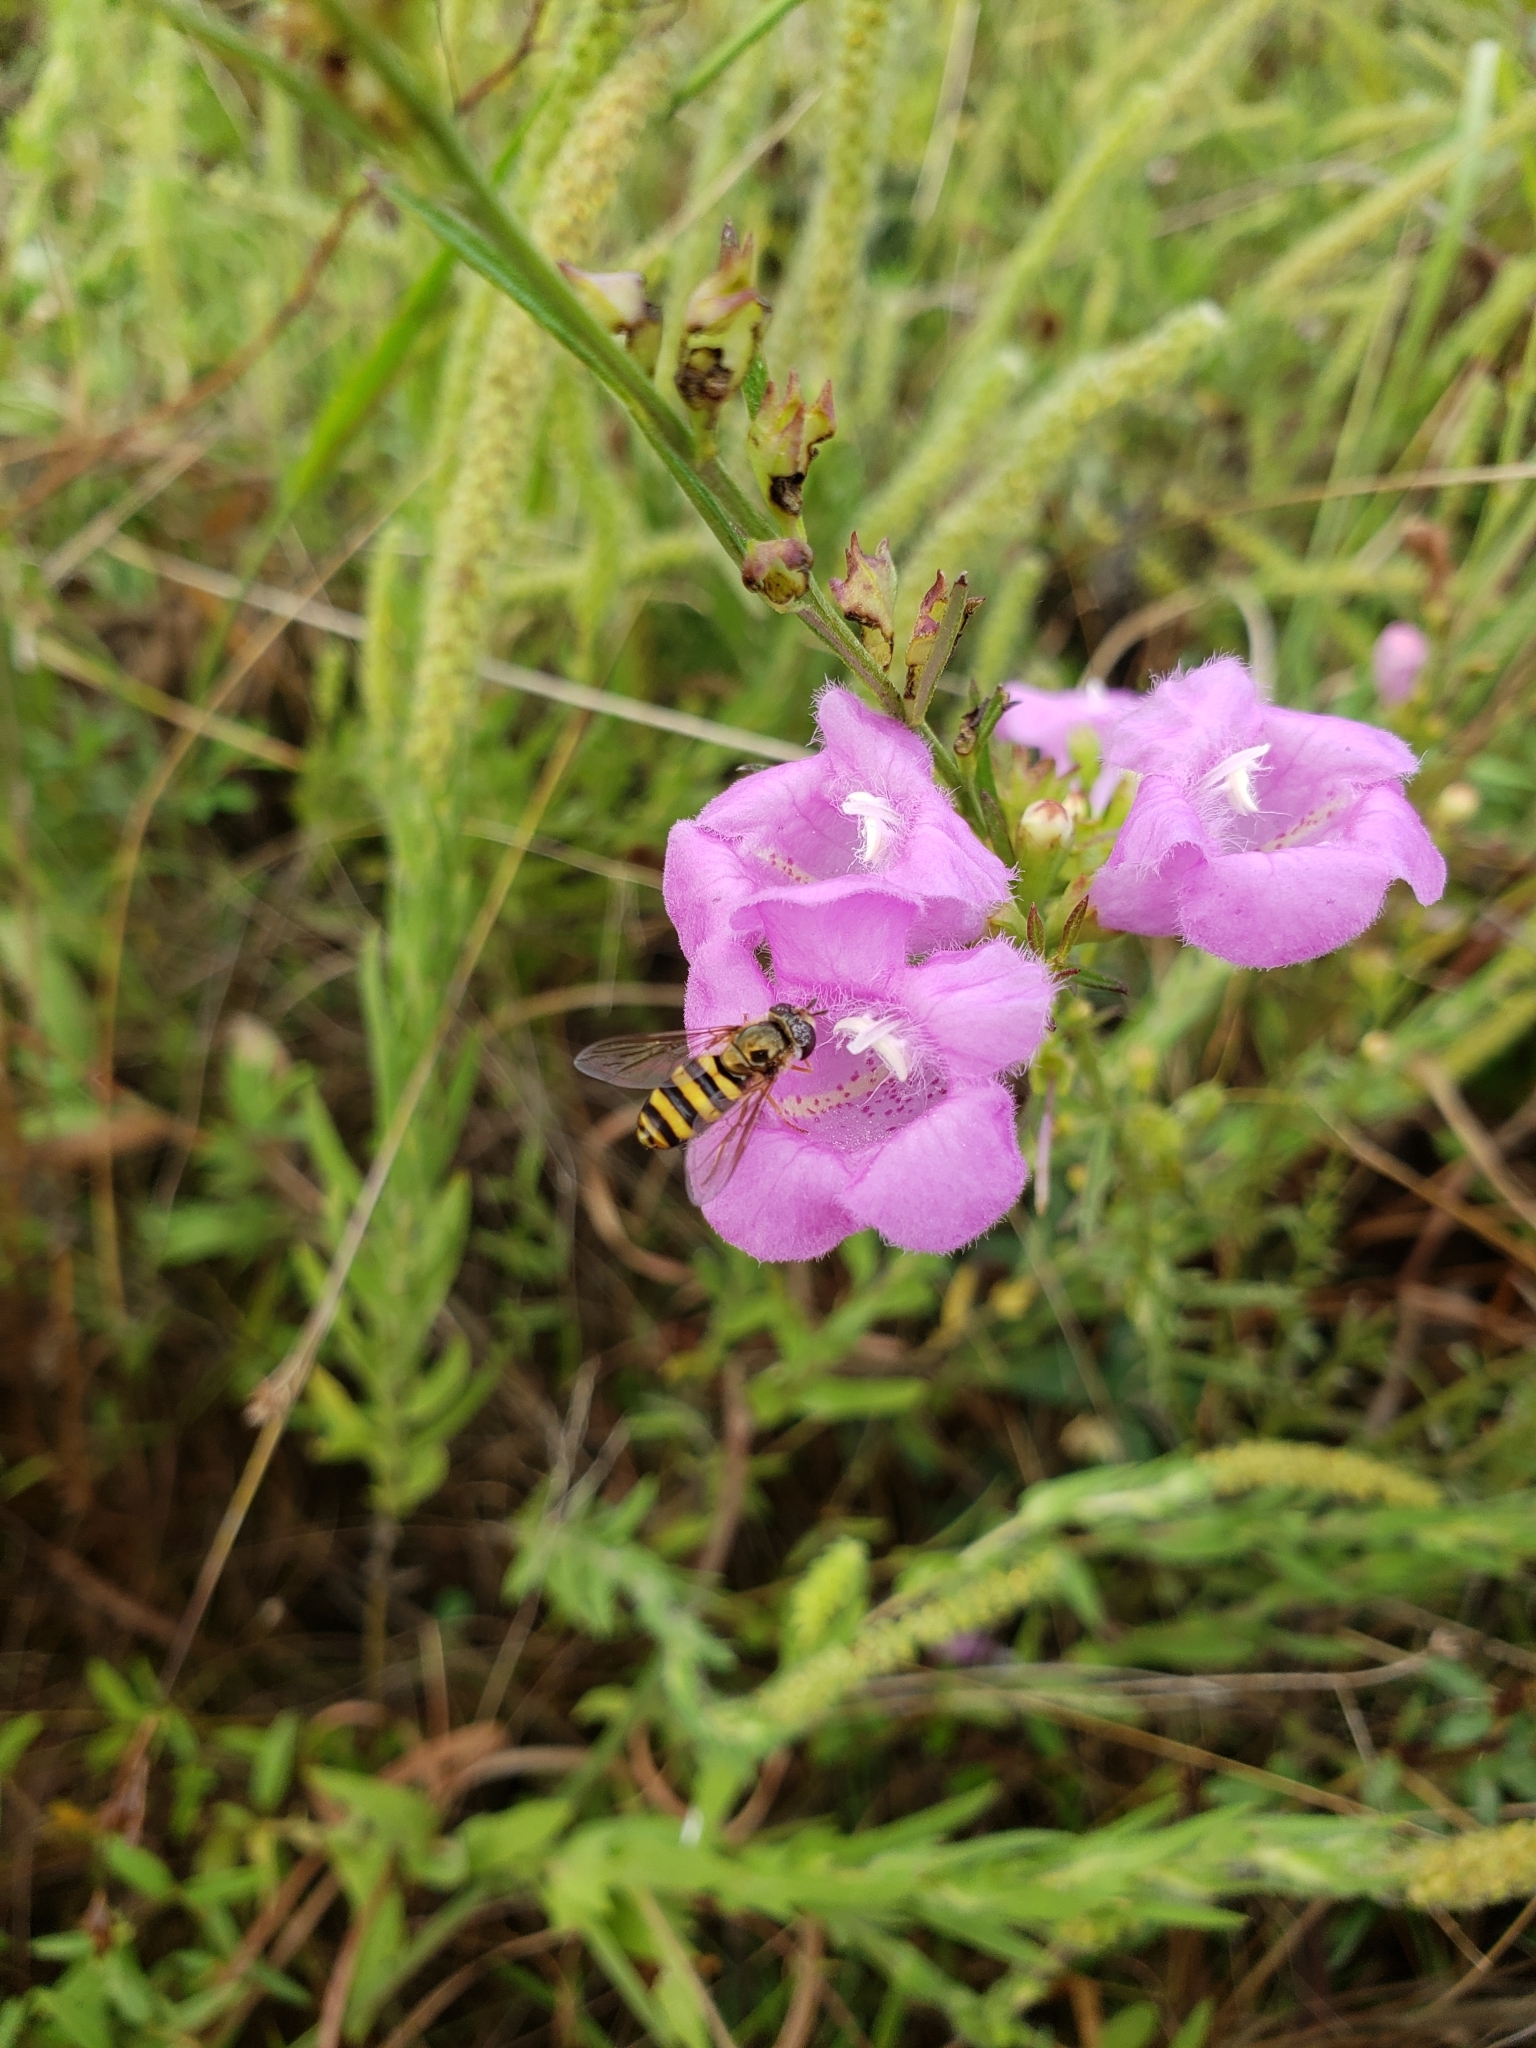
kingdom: Animalia
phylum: Arthropoda
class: Insecta
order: Diptera
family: Syrphidae
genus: Eupeodes
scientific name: Eupeodes
